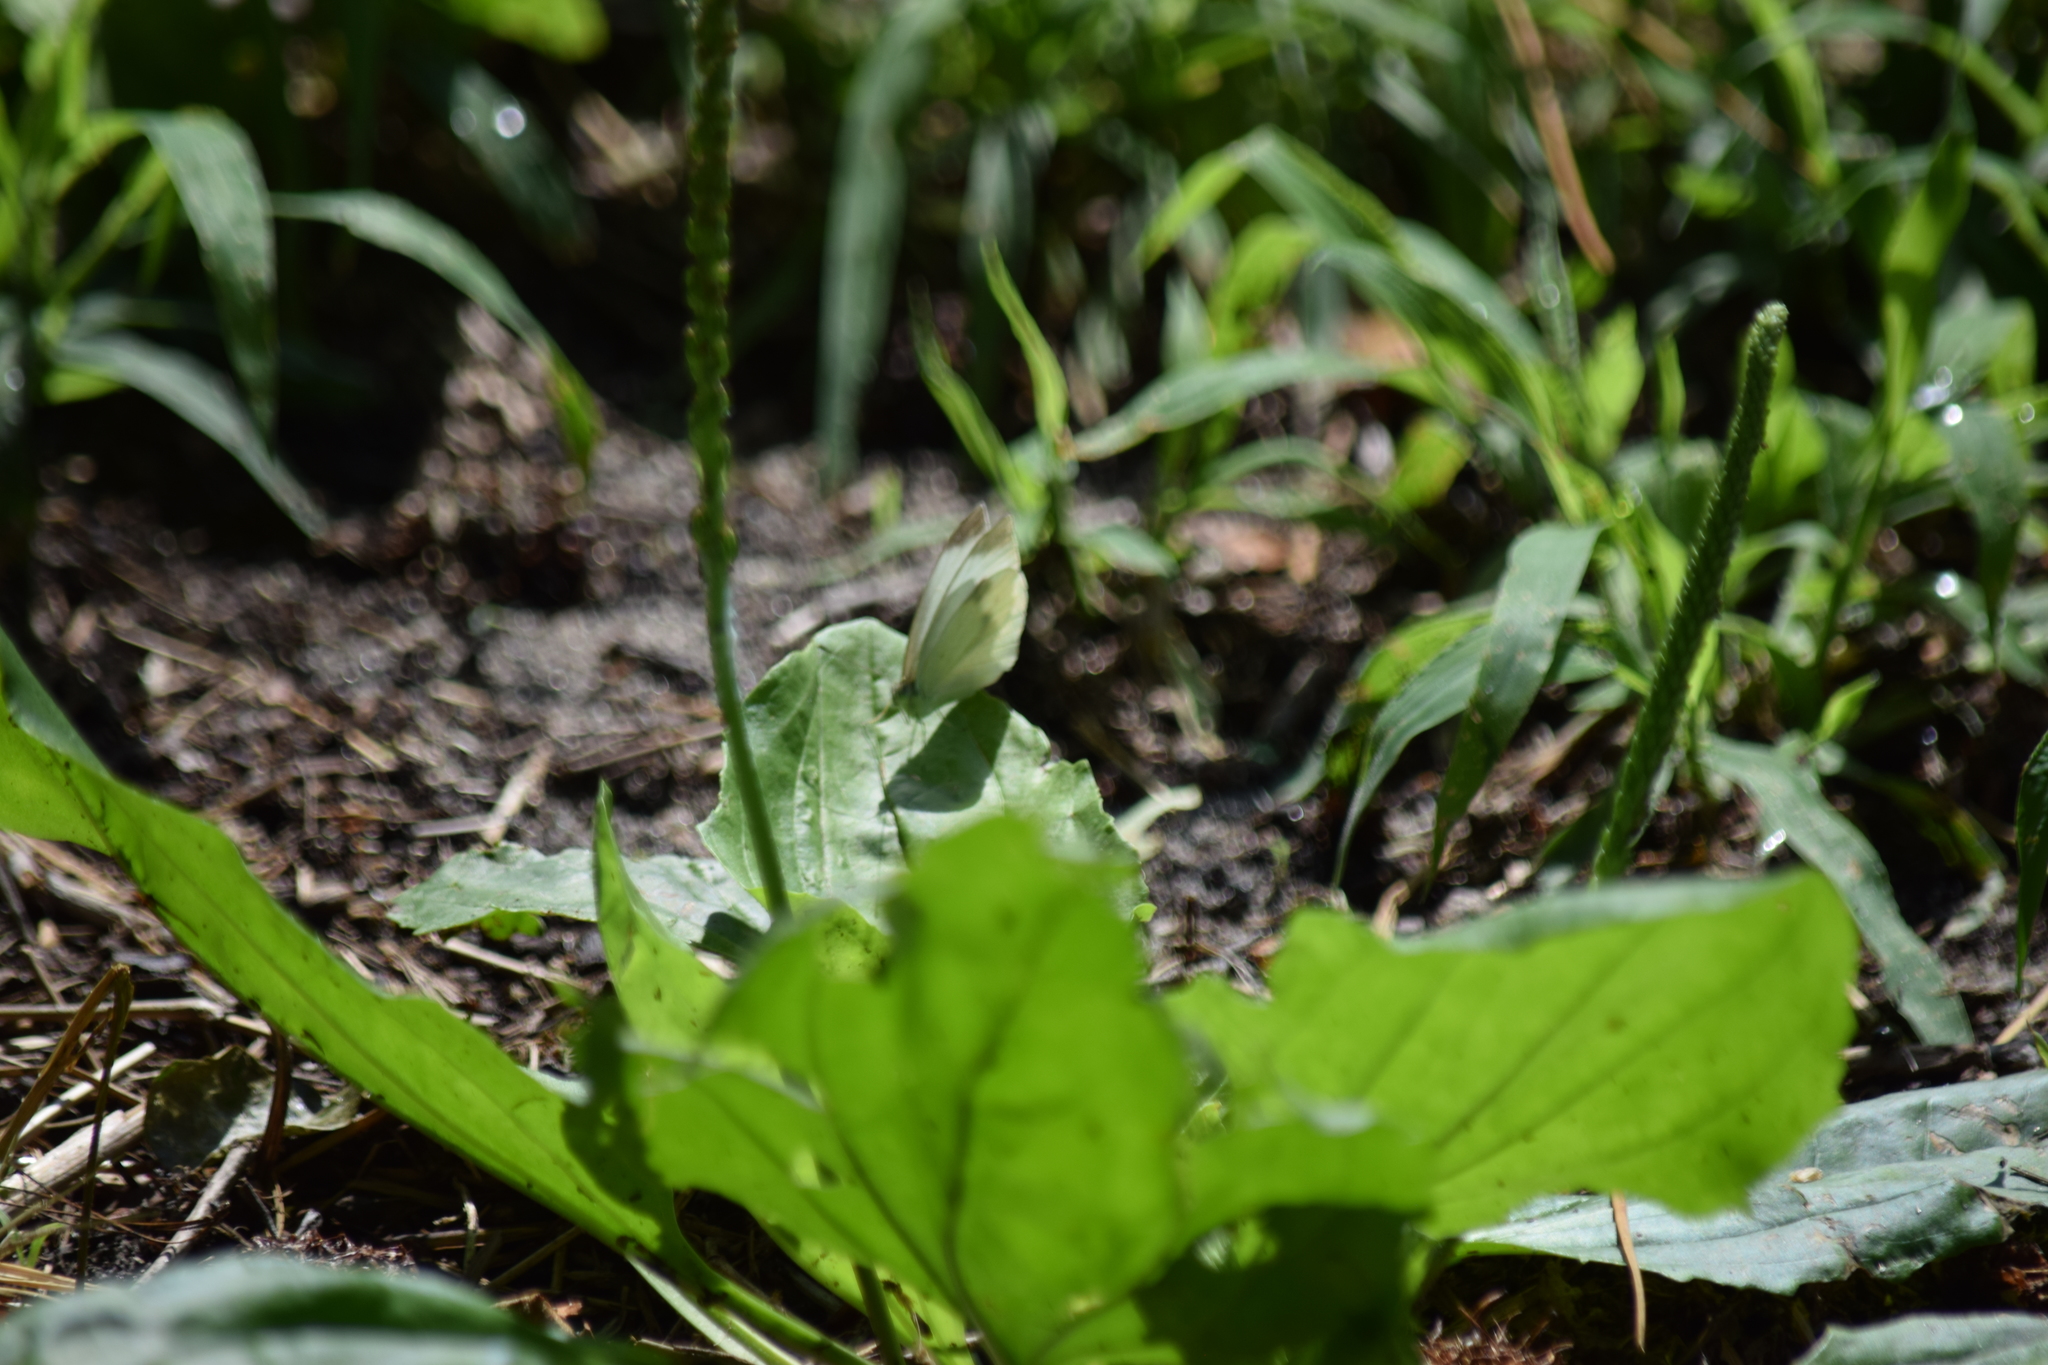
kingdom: Animalia
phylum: Arthropoda
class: Insecta
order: Lepidoptera
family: Pieridae
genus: Pieris
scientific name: Pieris rapae
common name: Small white
